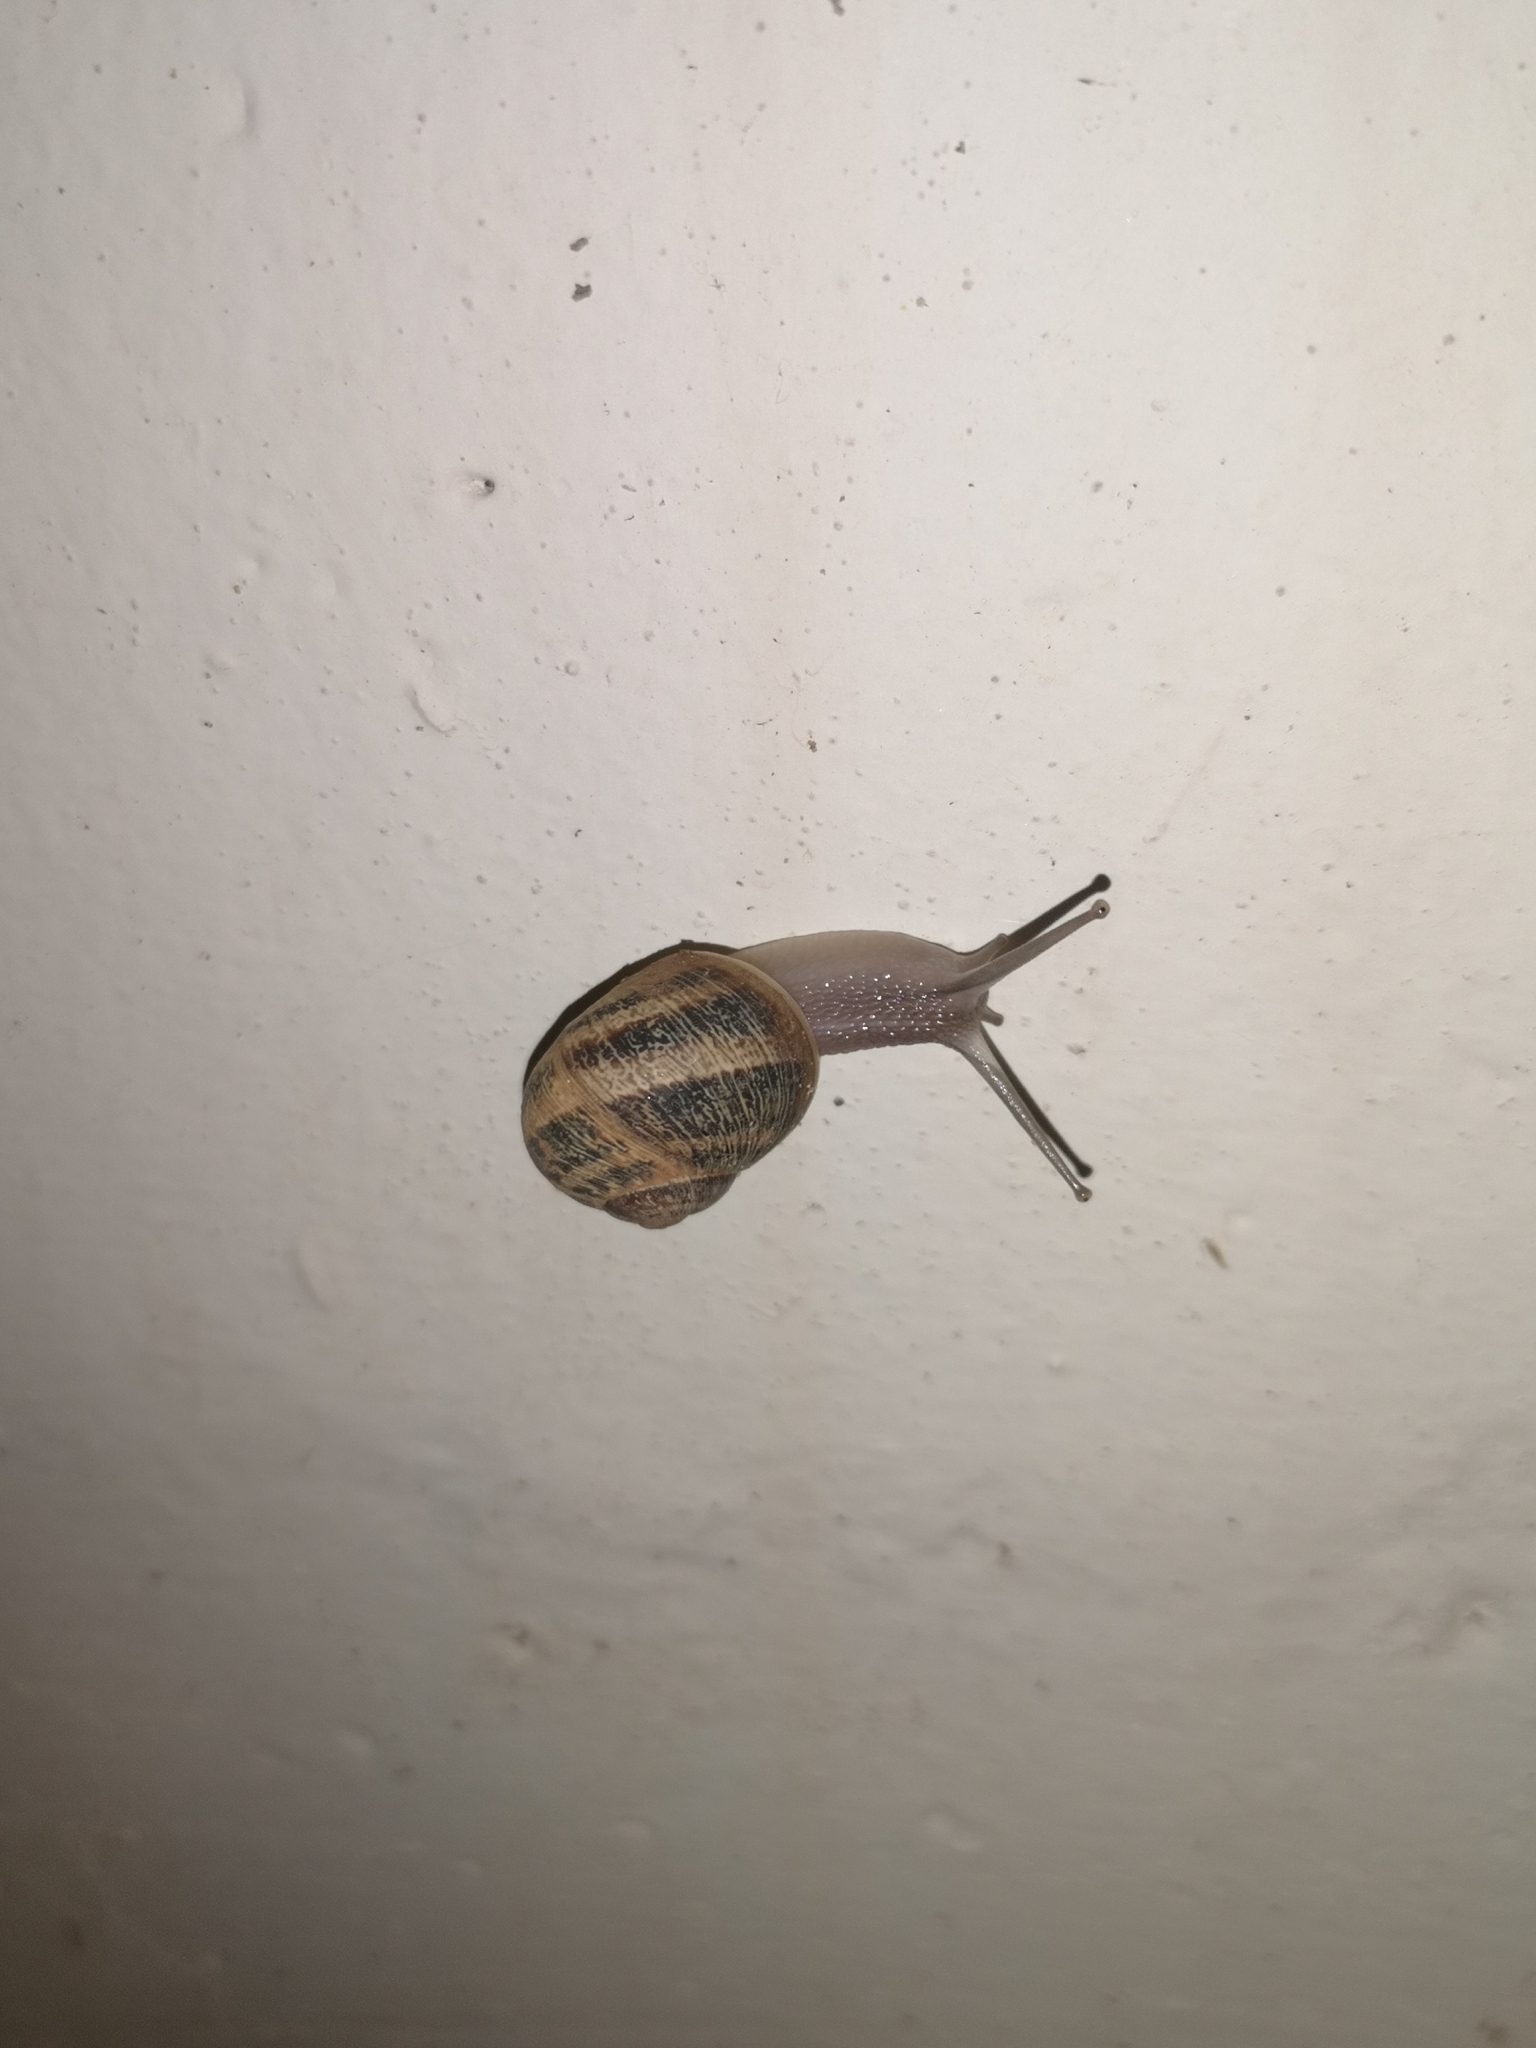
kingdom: Animalia
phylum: Mollusca
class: Gastropoda
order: Stylommatophora
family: Helicidae
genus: Cornu
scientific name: Cornu aspersum
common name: Brown garden snail
